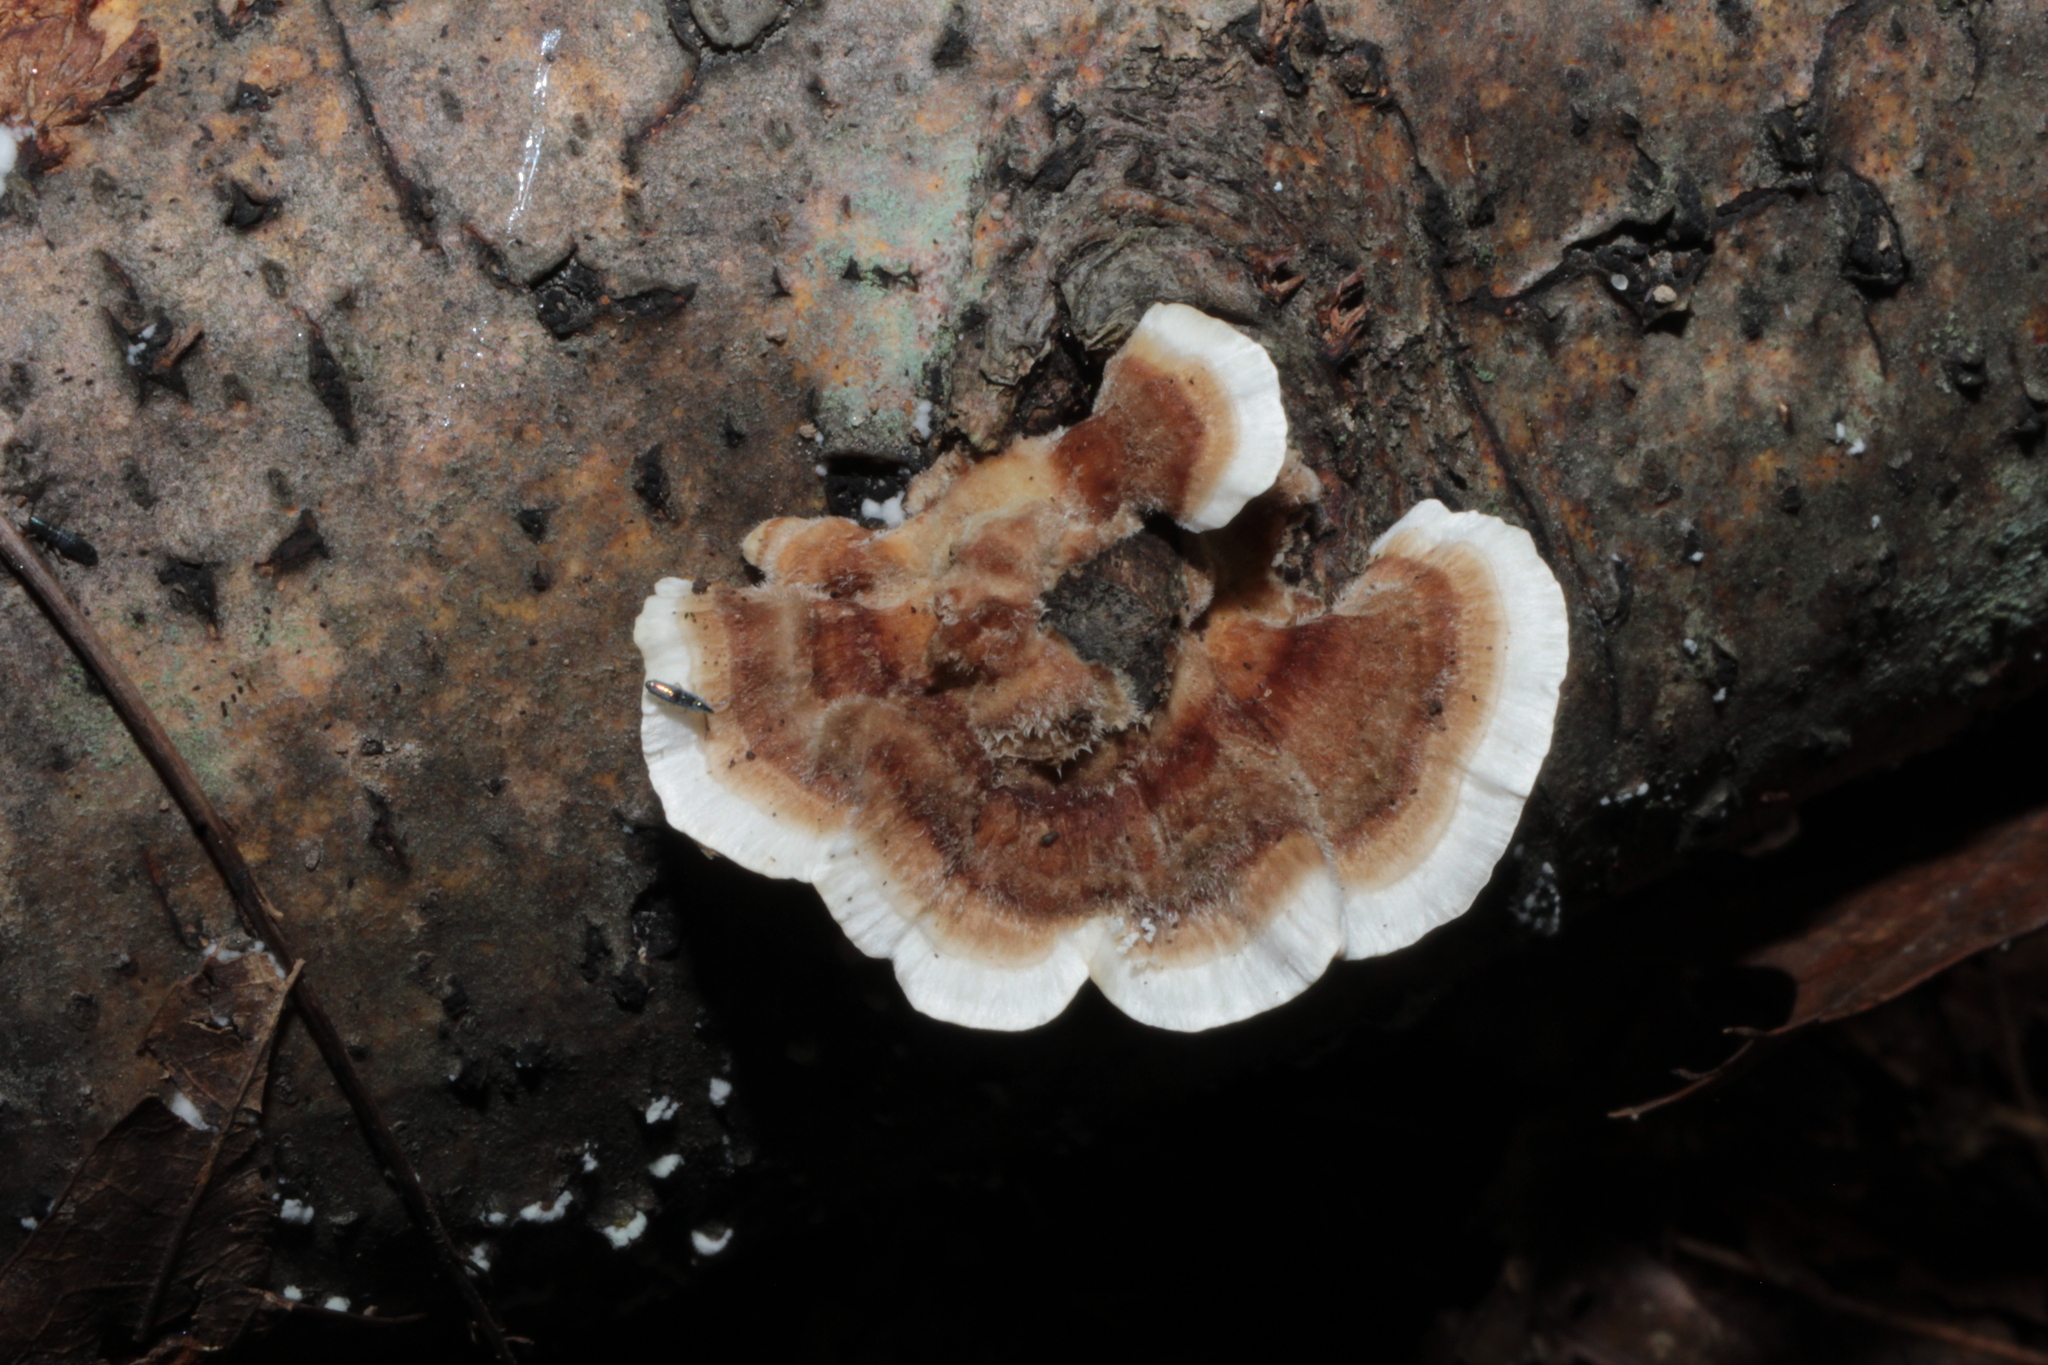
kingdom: Fungi
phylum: Basidiomycota
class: Agaricomycetes
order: Polyporales
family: Polyporaceae
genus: Trametes
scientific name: Trametes versicolor
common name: Turkeytail
